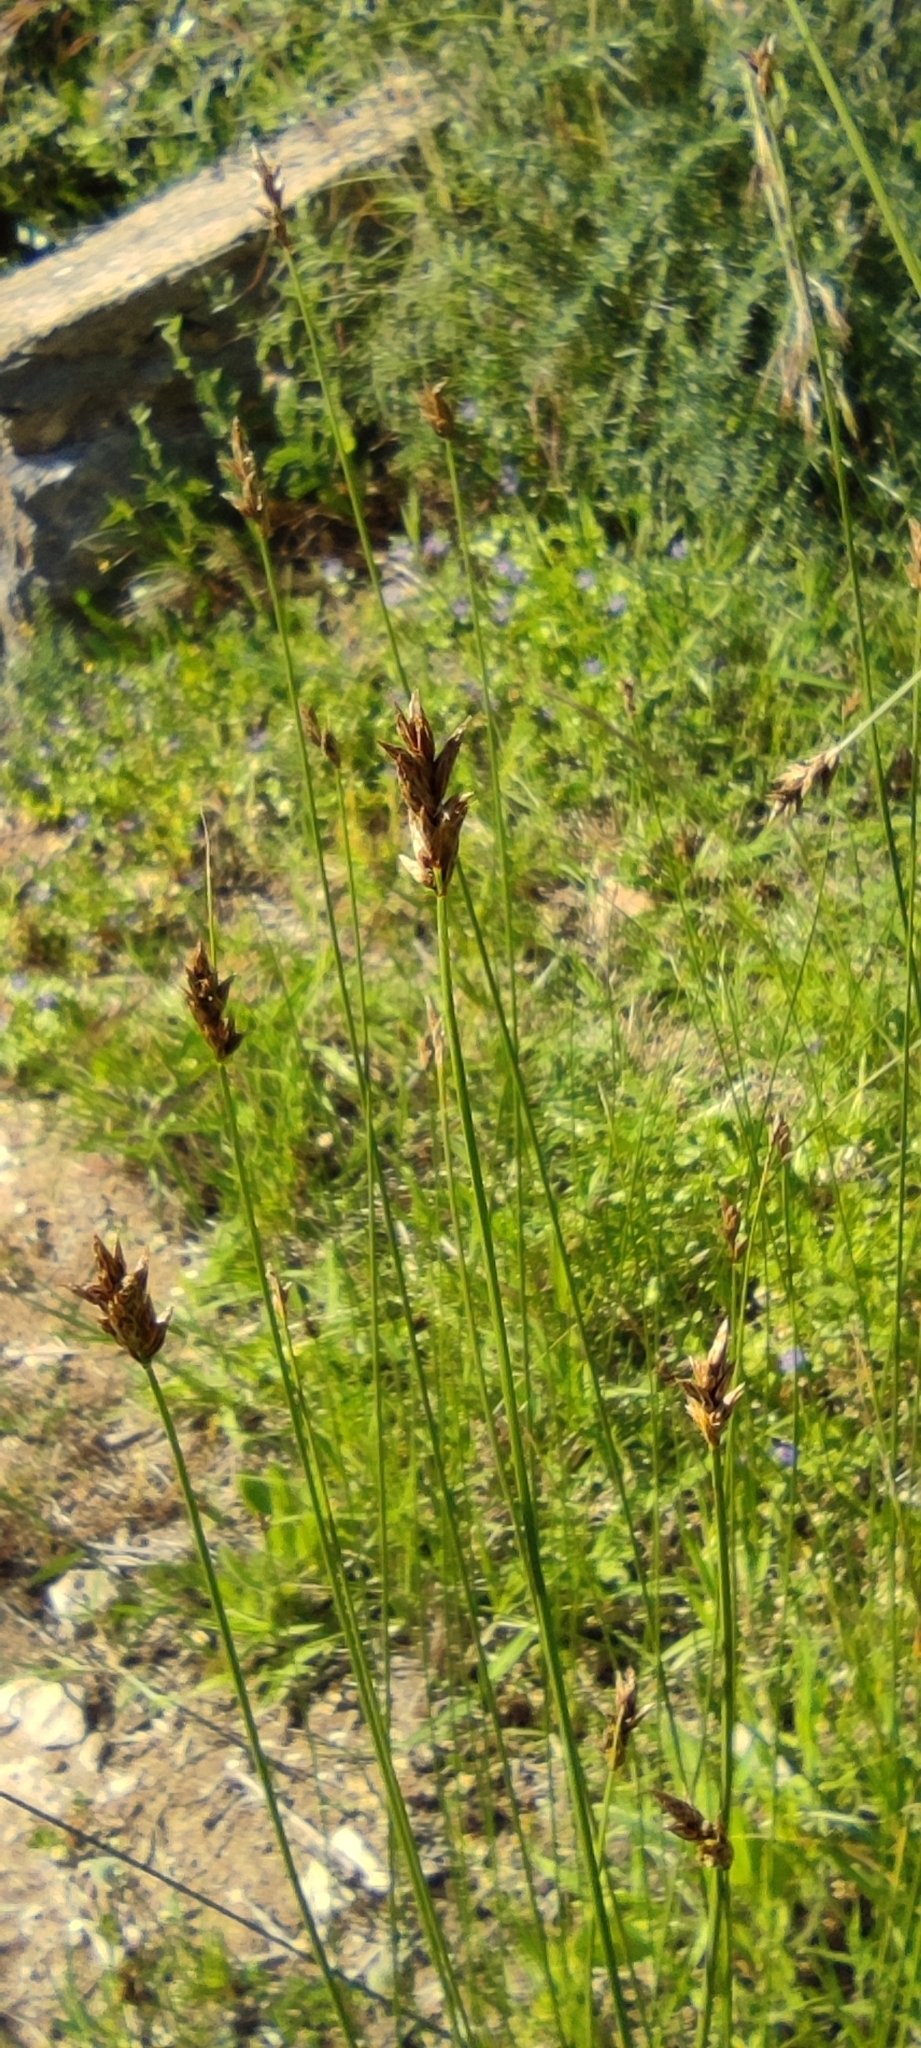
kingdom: Plantae
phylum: Tracheophyta
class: Liliopsida
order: Poales
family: Cyperaceae
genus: Carex
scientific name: Carex divisa
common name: Divided sedge
